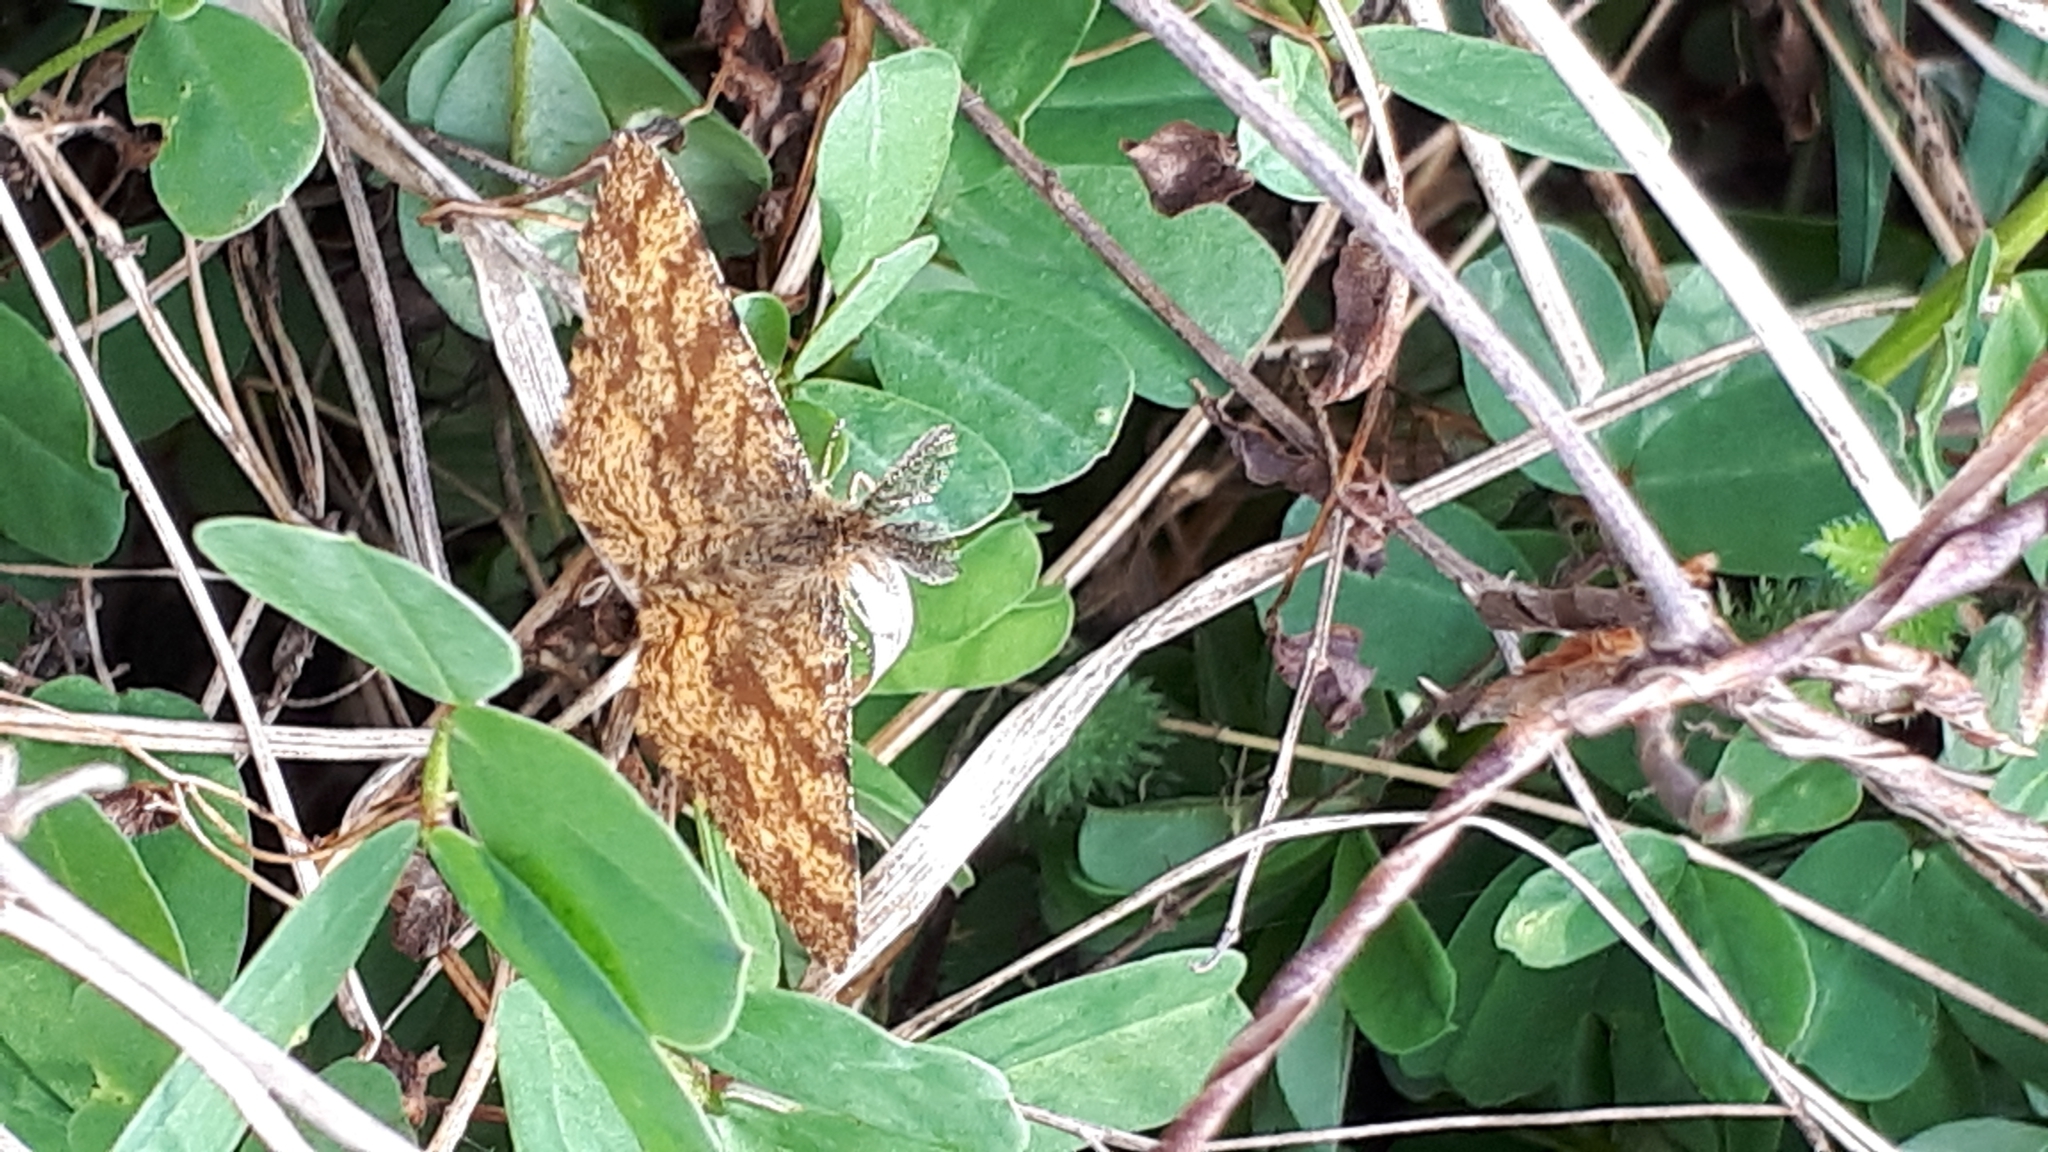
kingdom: Animalia
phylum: Arthropoda
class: Insecta
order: Lepidoptera
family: Geometridae
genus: Ematurga
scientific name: Ematurga atomaria
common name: Common heath
